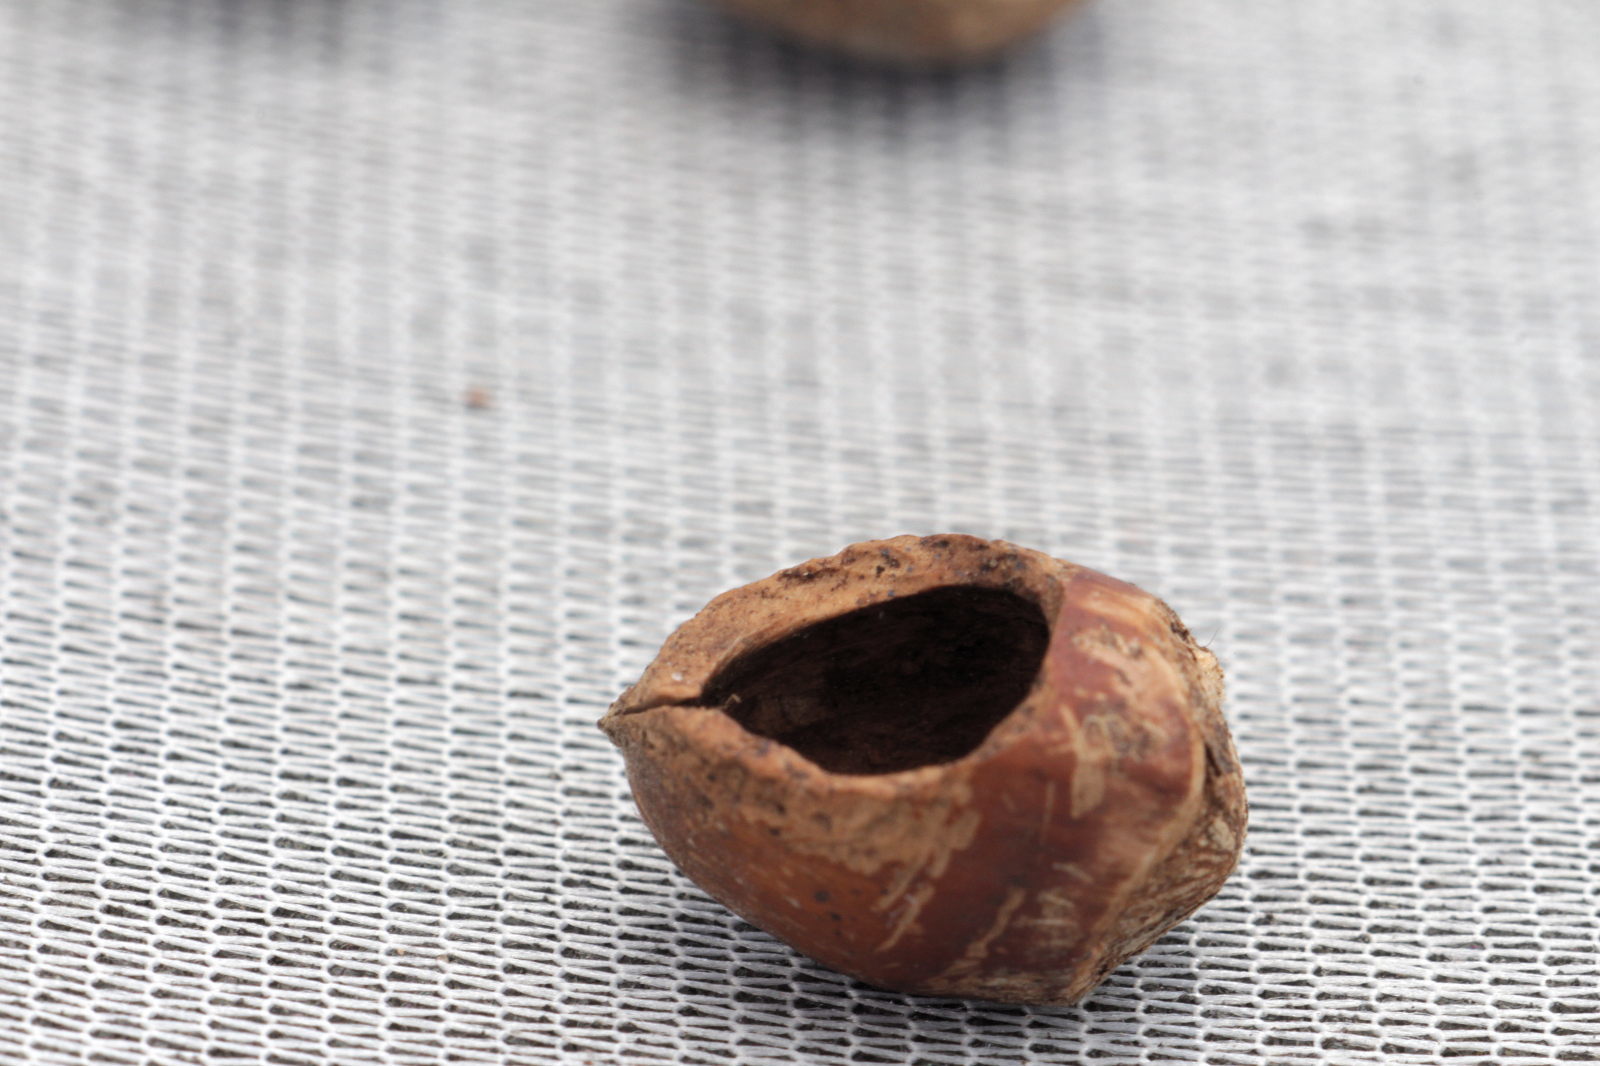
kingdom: Animalia
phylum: Chordata
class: Mammalia
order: Rodentia
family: Gliridae
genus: Muscardinus
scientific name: Muscardinus avellanarius
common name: Hazel dormouse
